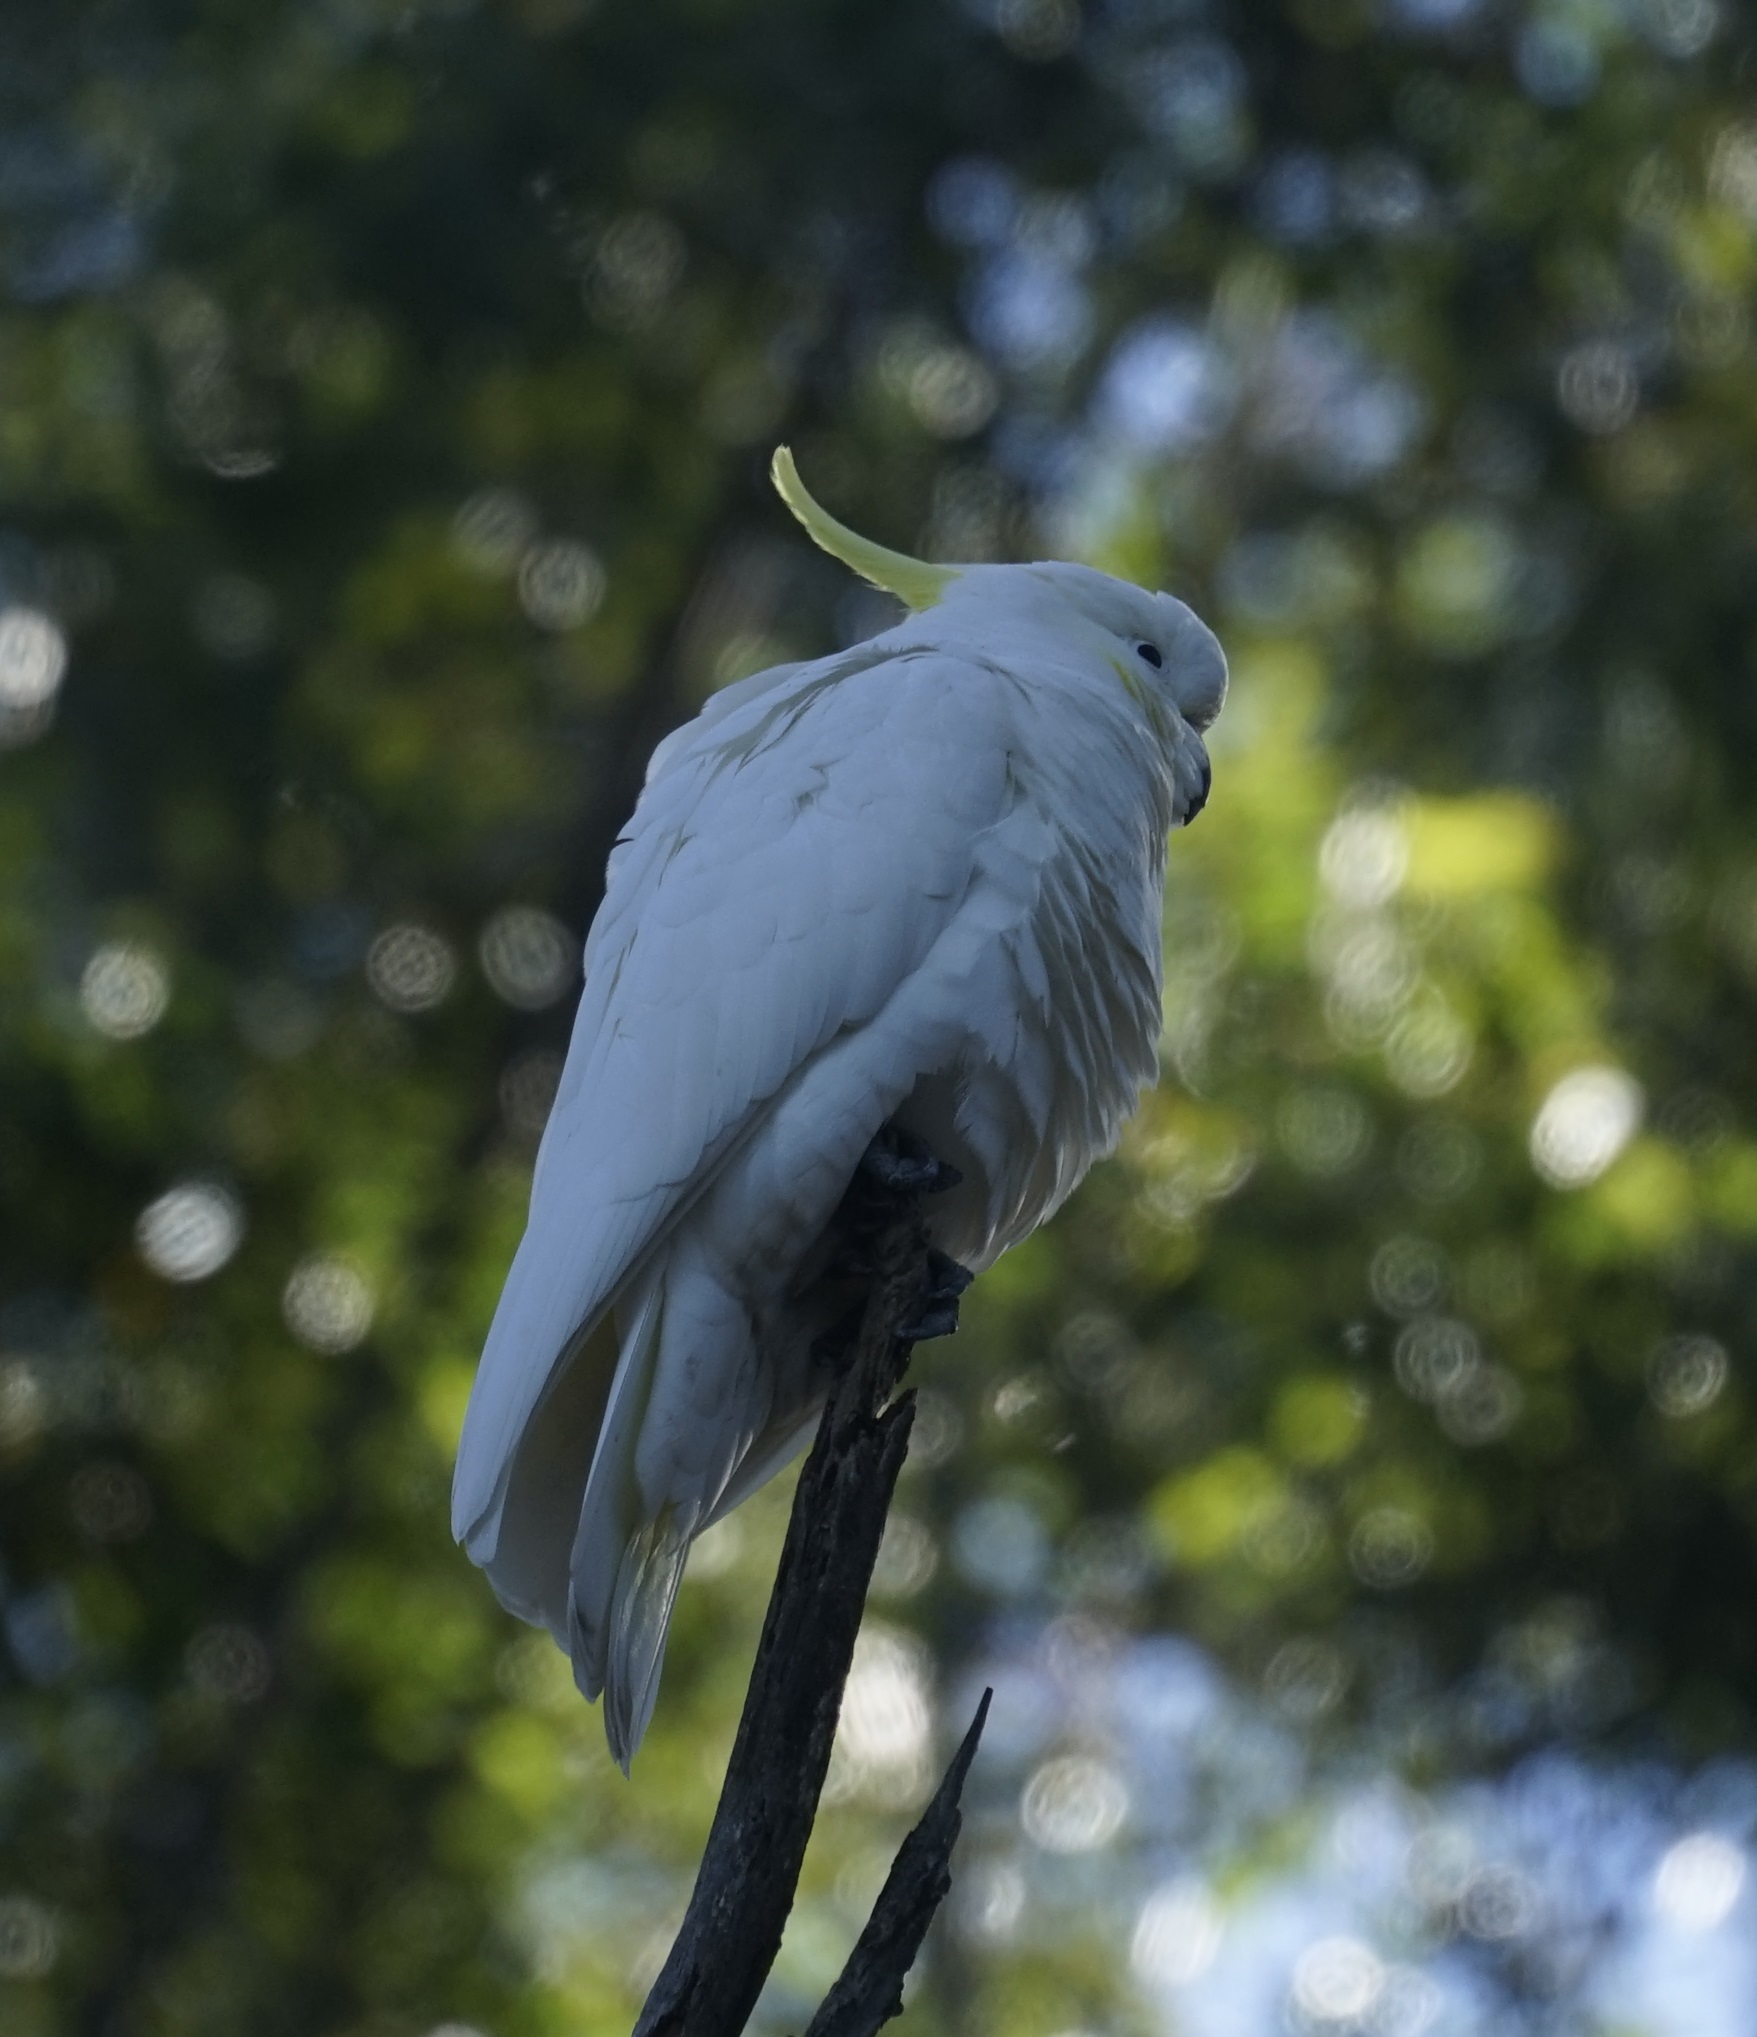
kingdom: Animalia
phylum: Chordata
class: Aves
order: Psittaciformes
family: Psittacidae
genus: Cacatua
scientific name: Cacatua galerita
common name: Sulphur-crested cockatoo
